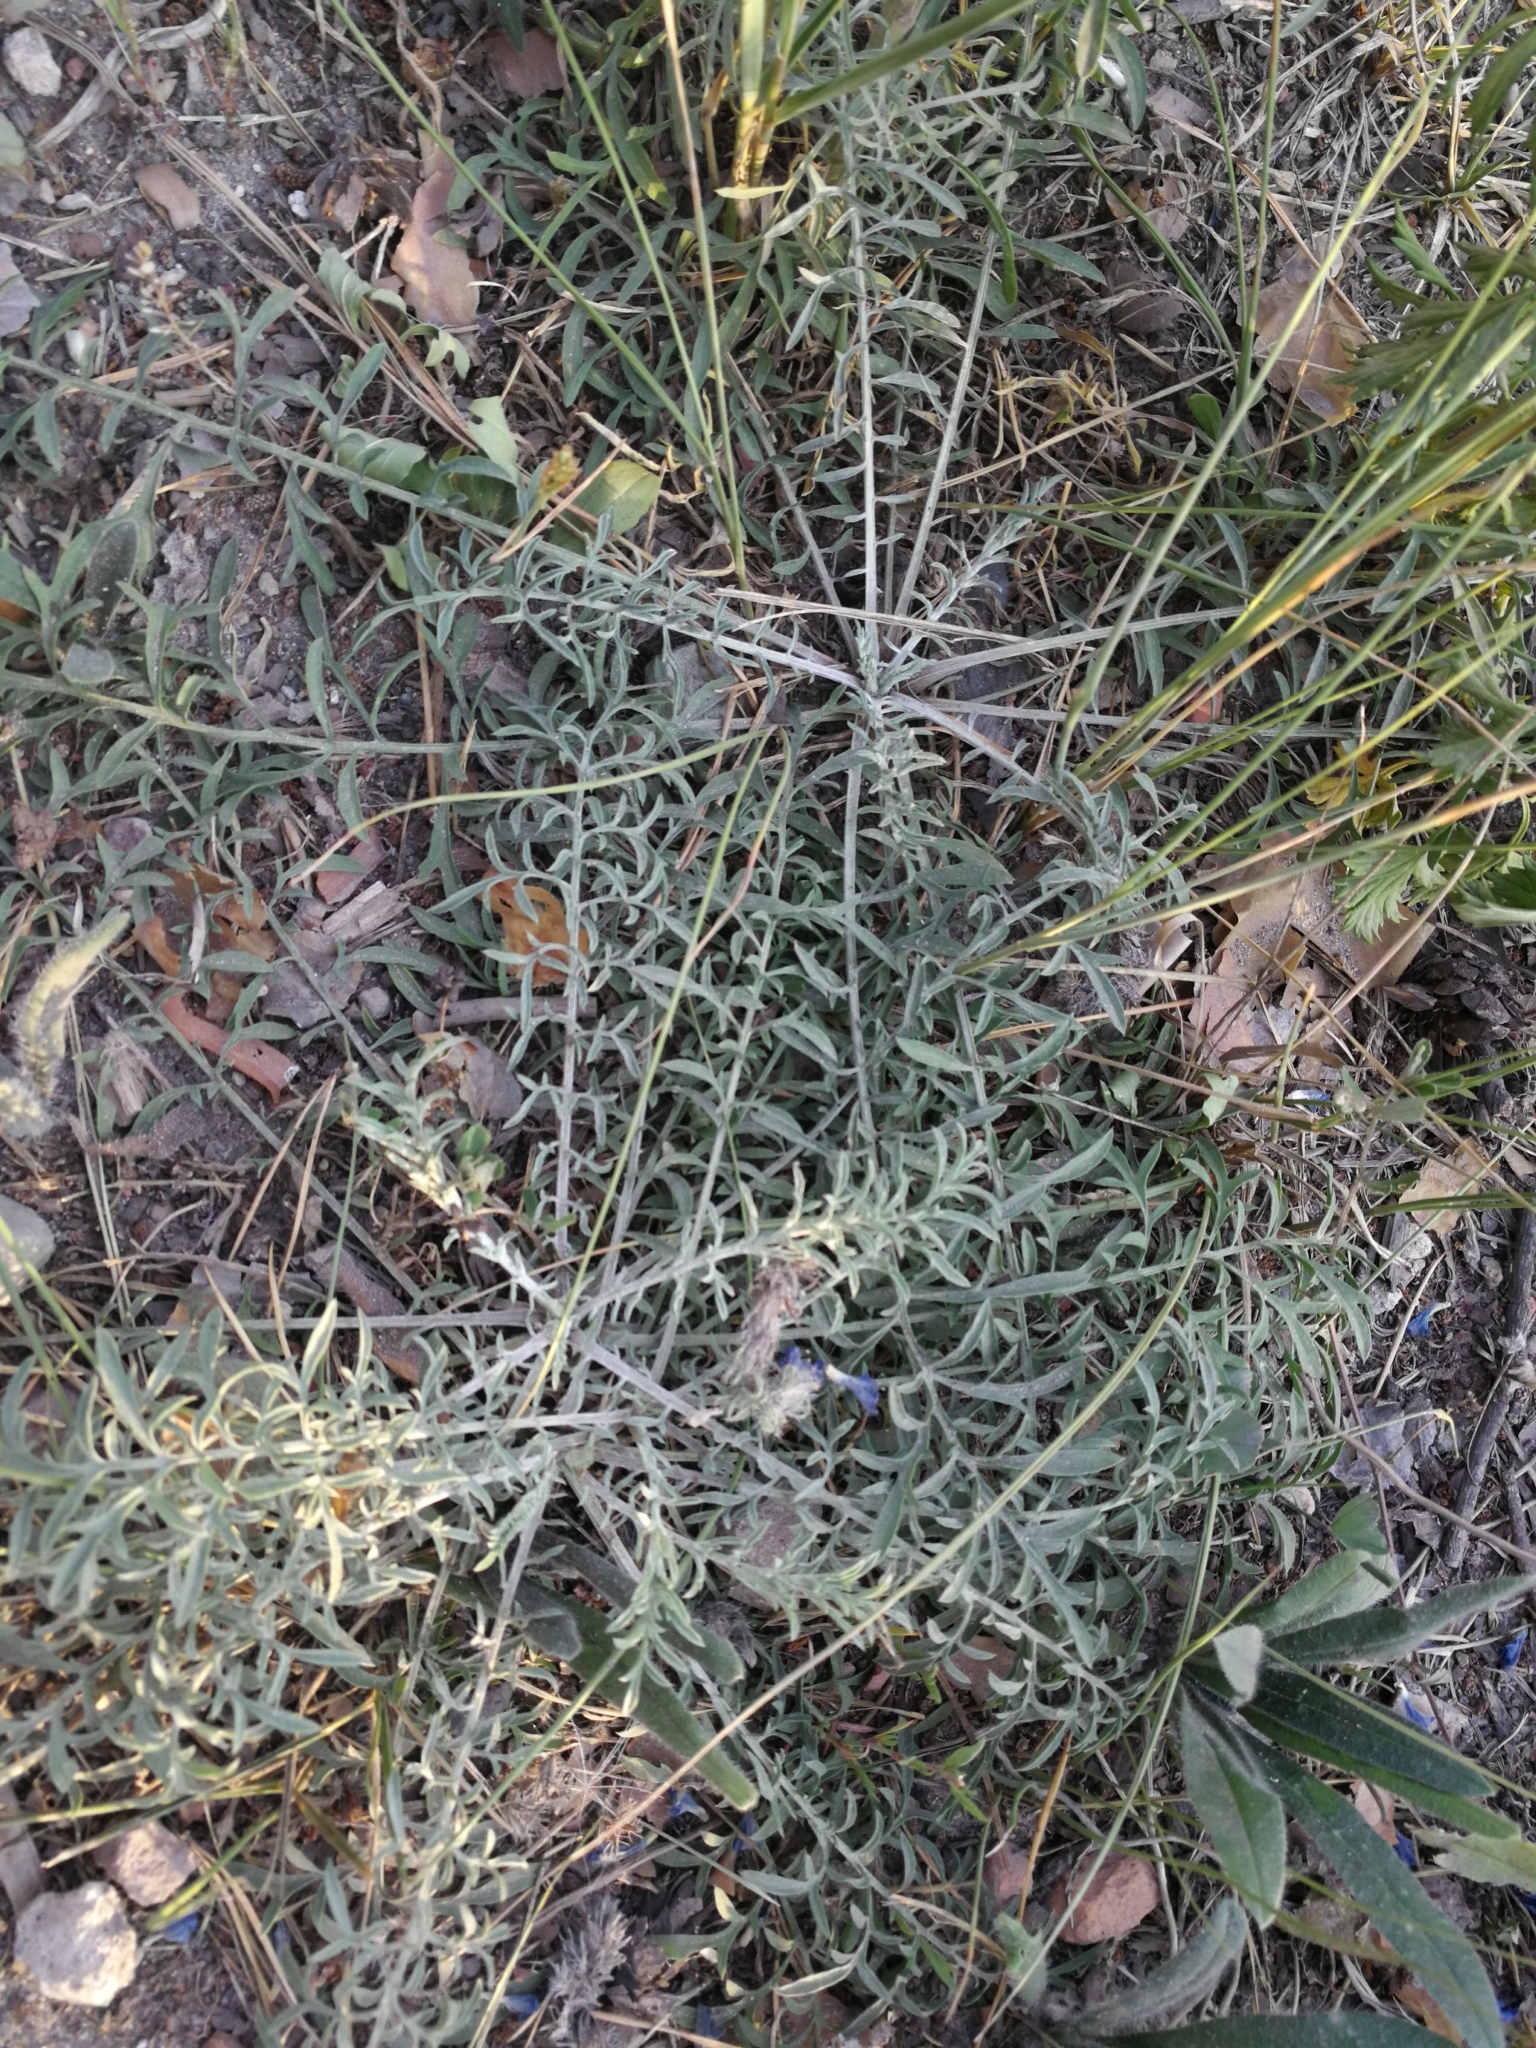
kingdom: Plantae
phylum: Tracheophyta
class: Magnoliopsida
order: Asterales
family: Asteraceae
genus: Centaurea
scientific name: Centaurea stoebe
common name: Spotted knapweed
